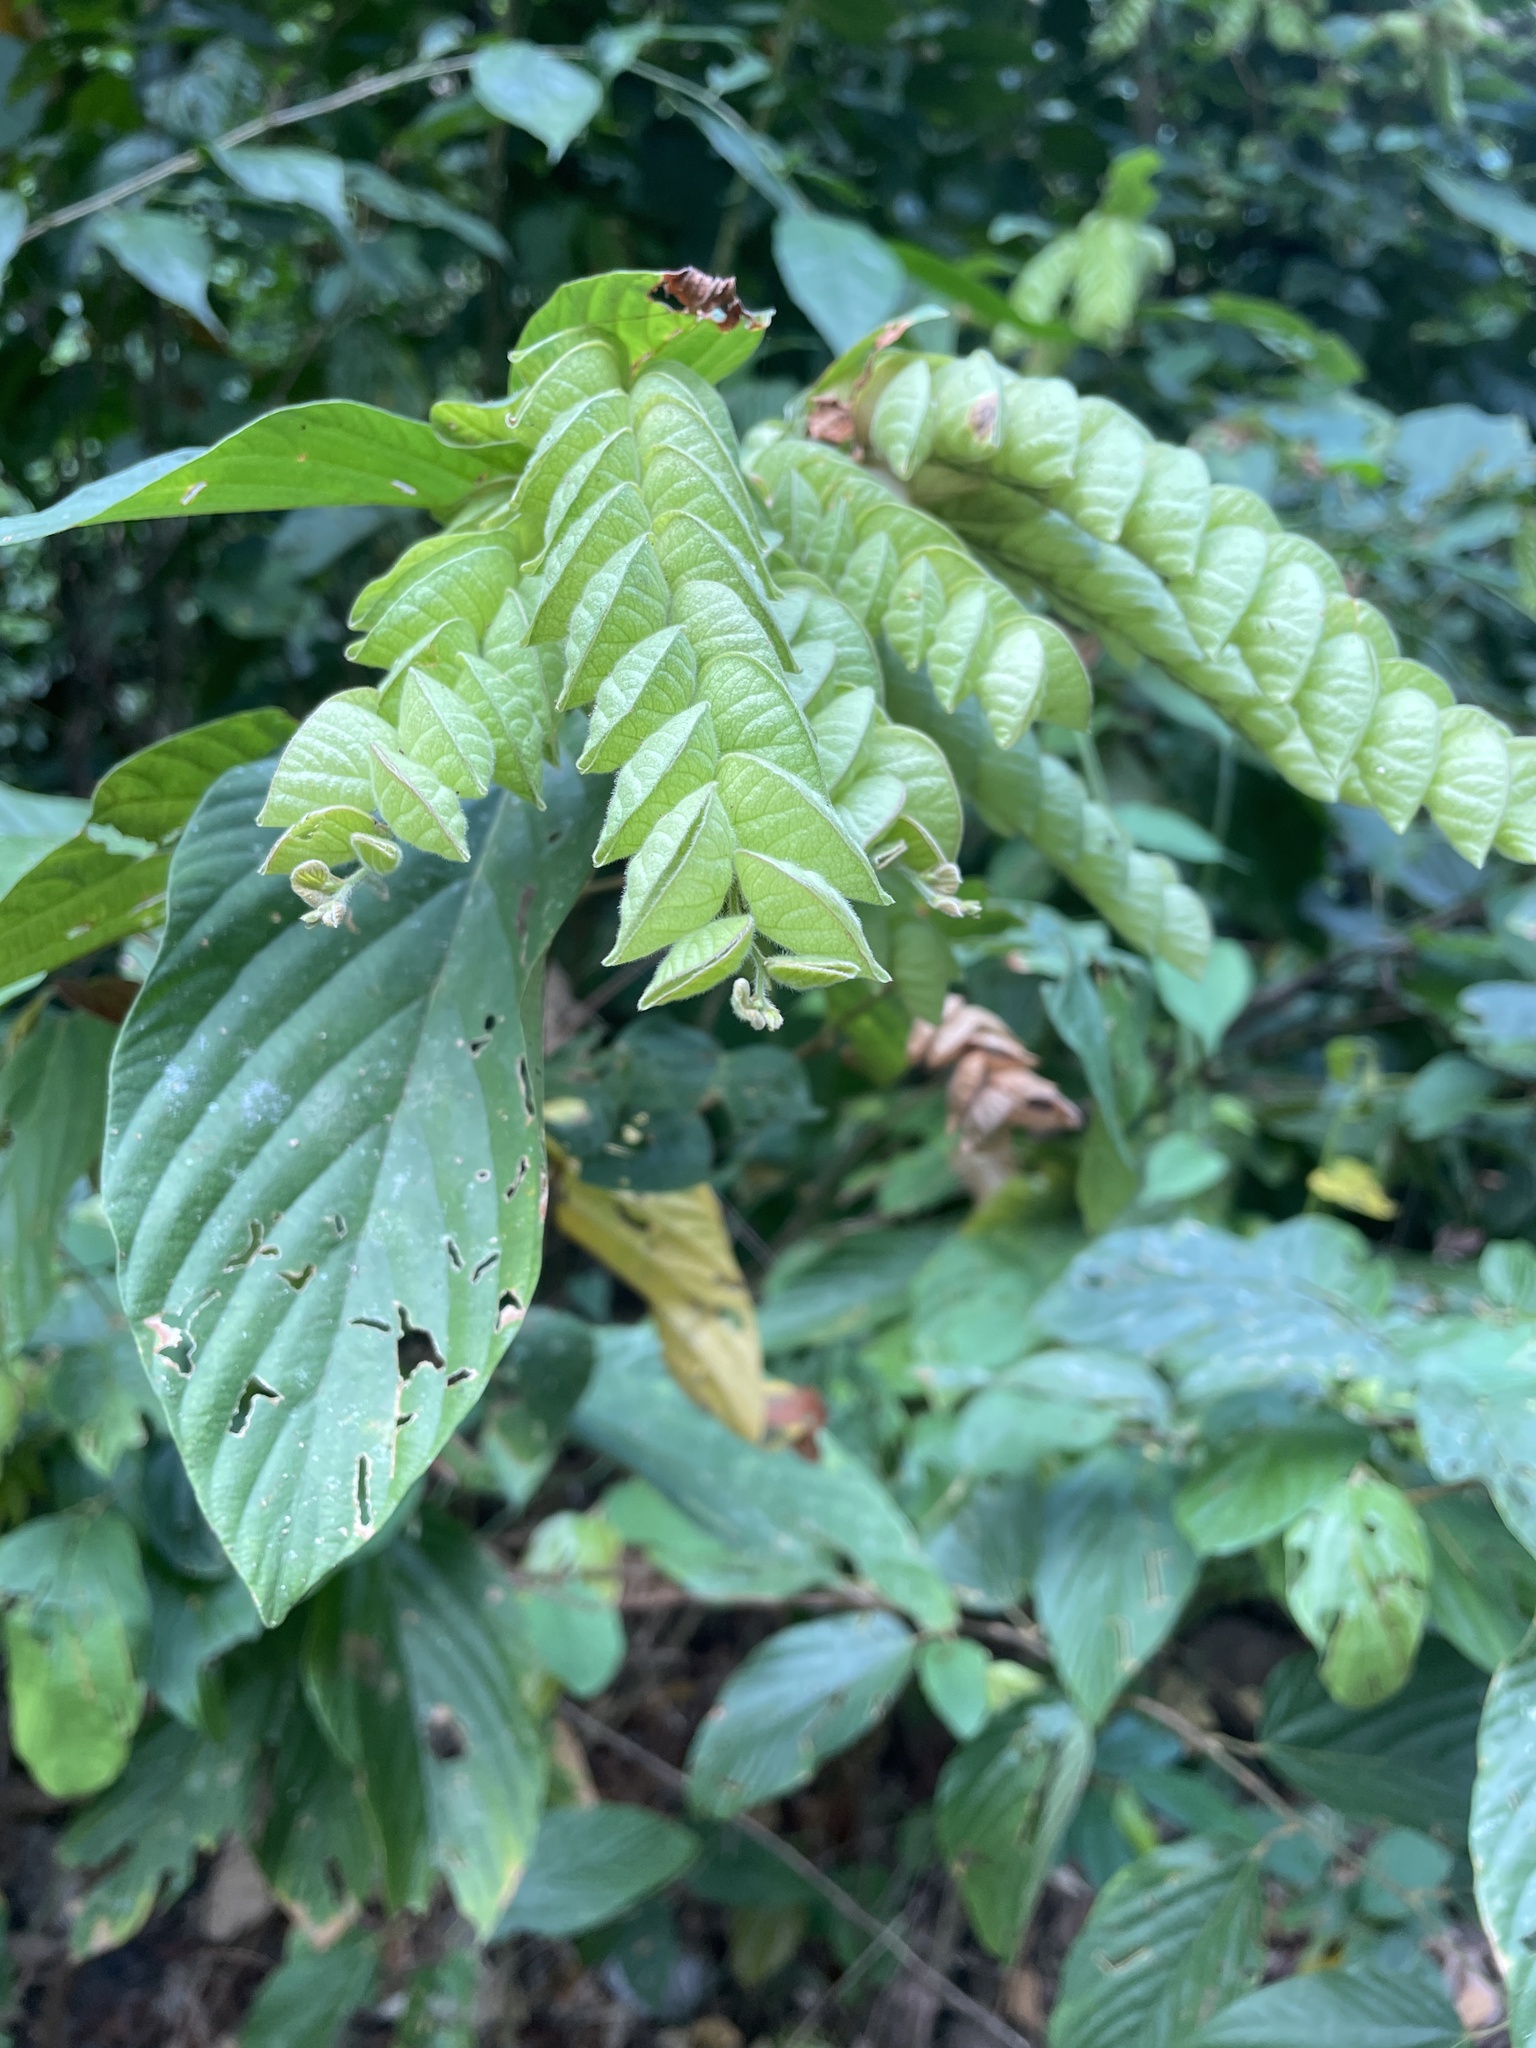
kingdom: Plantae
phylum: Tracheophyta
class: Magnoliopsida
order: Fabales
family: Fabaceae
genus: Flemingia
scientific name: Flemingia strobilifera
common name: Wild hops
